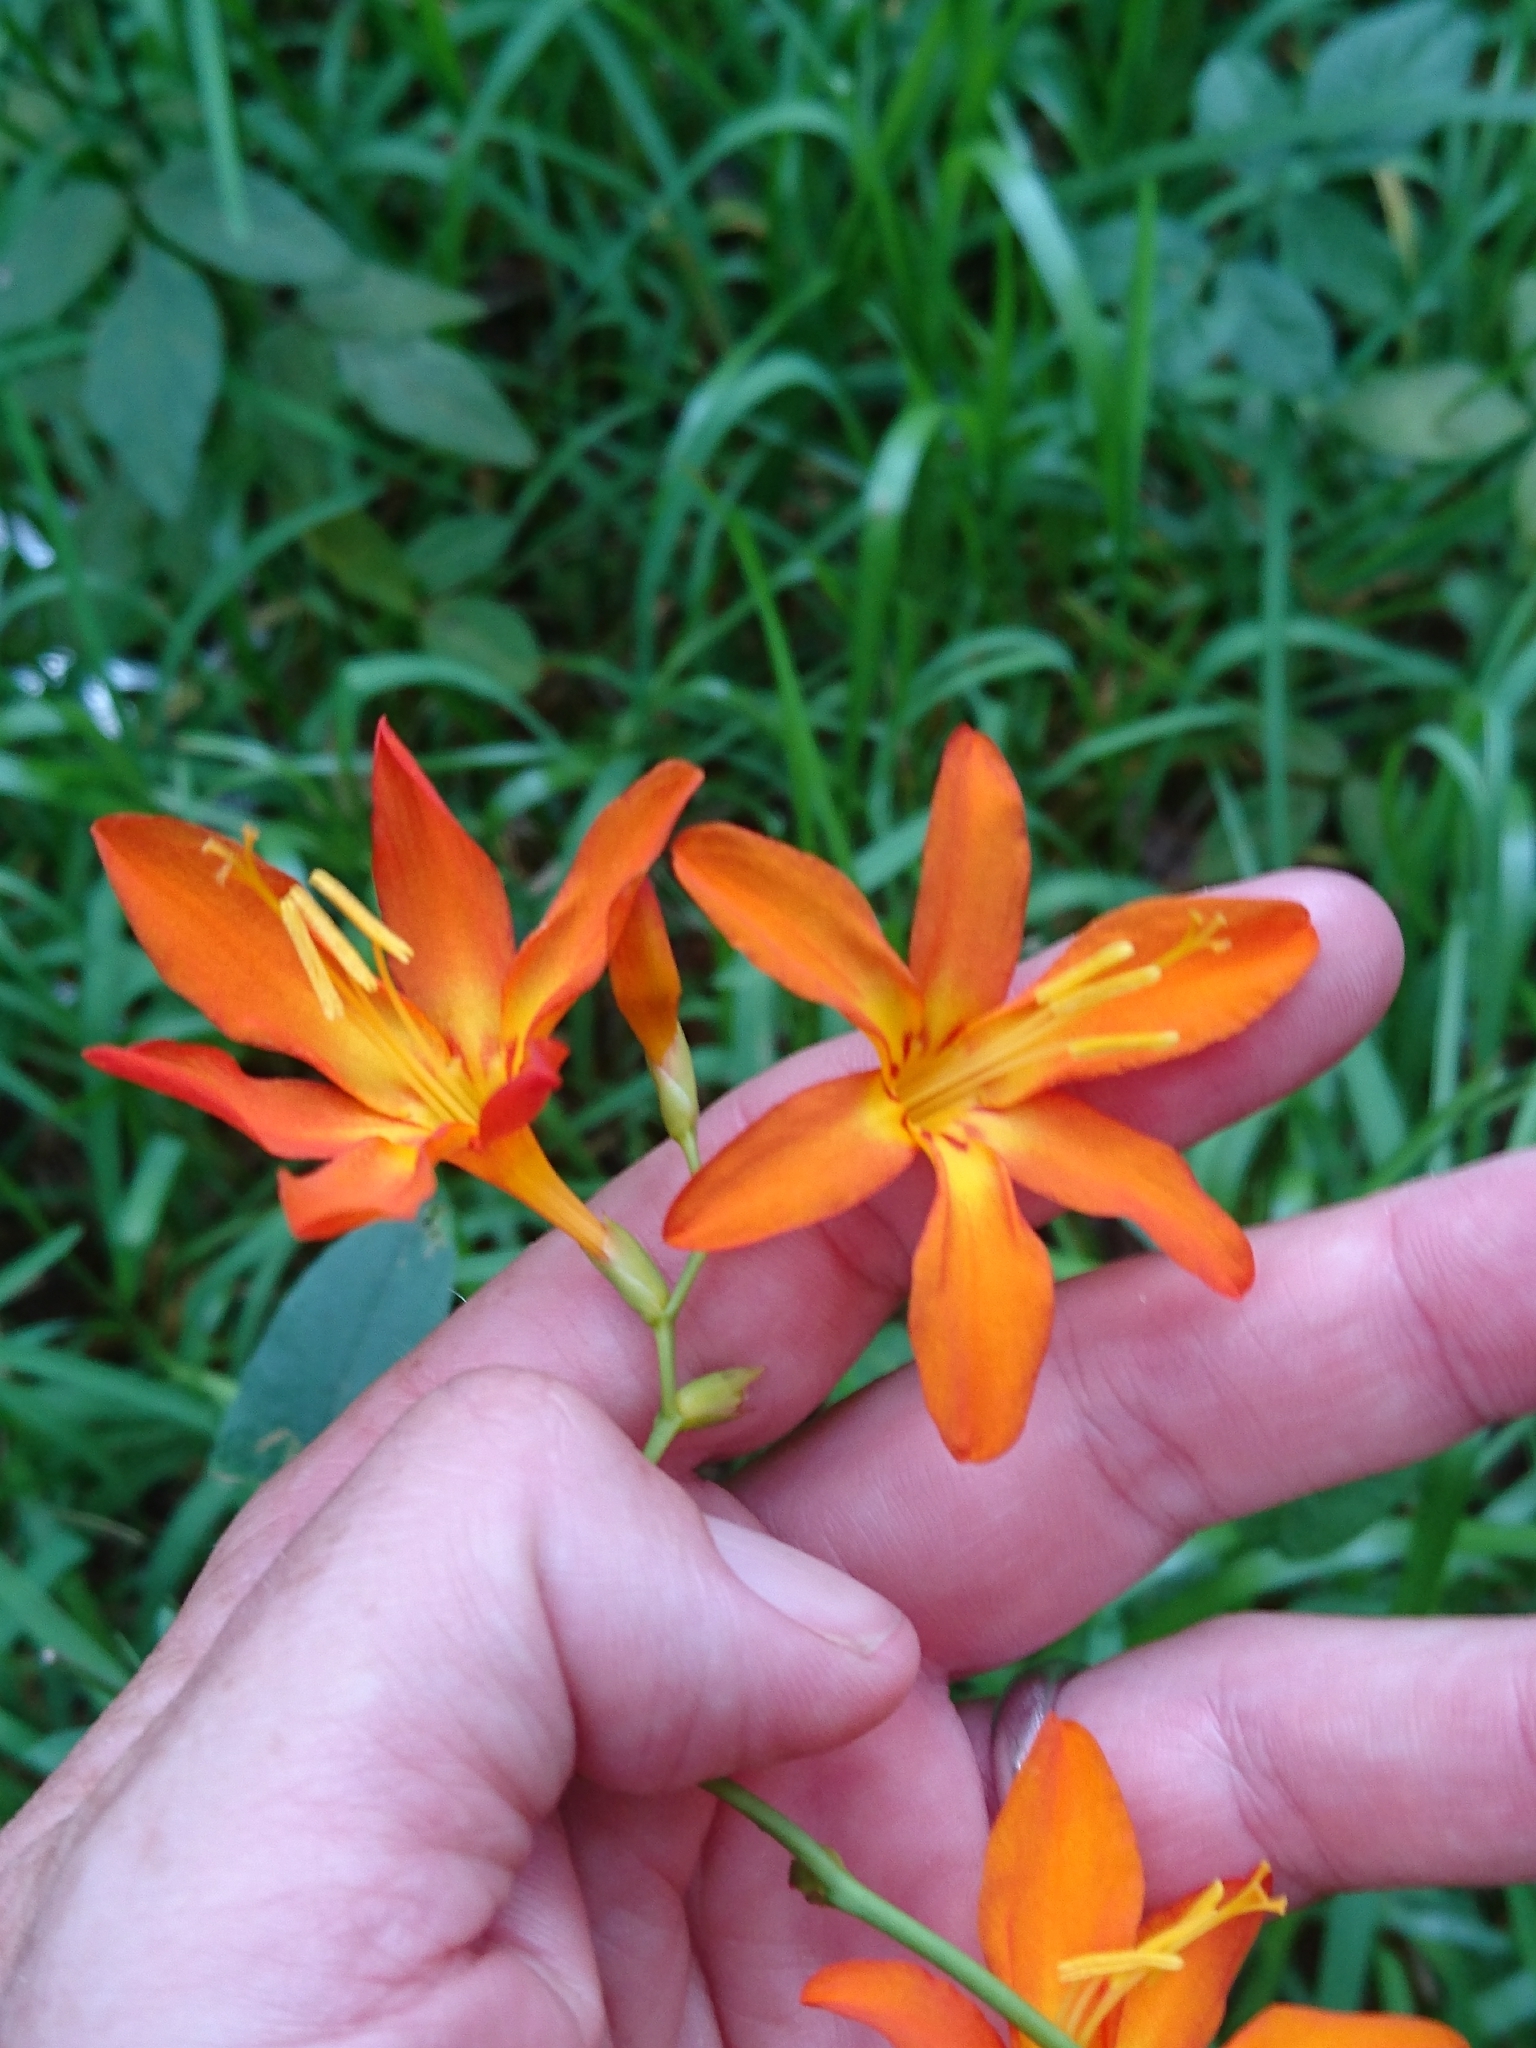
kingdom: Plantae
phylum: Tracheophyta
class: Liliopsida
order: Asparagales
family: Iridaceae
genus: Crocosmia
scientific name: Crocosmia crocosmiiflora
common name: Montbretia
